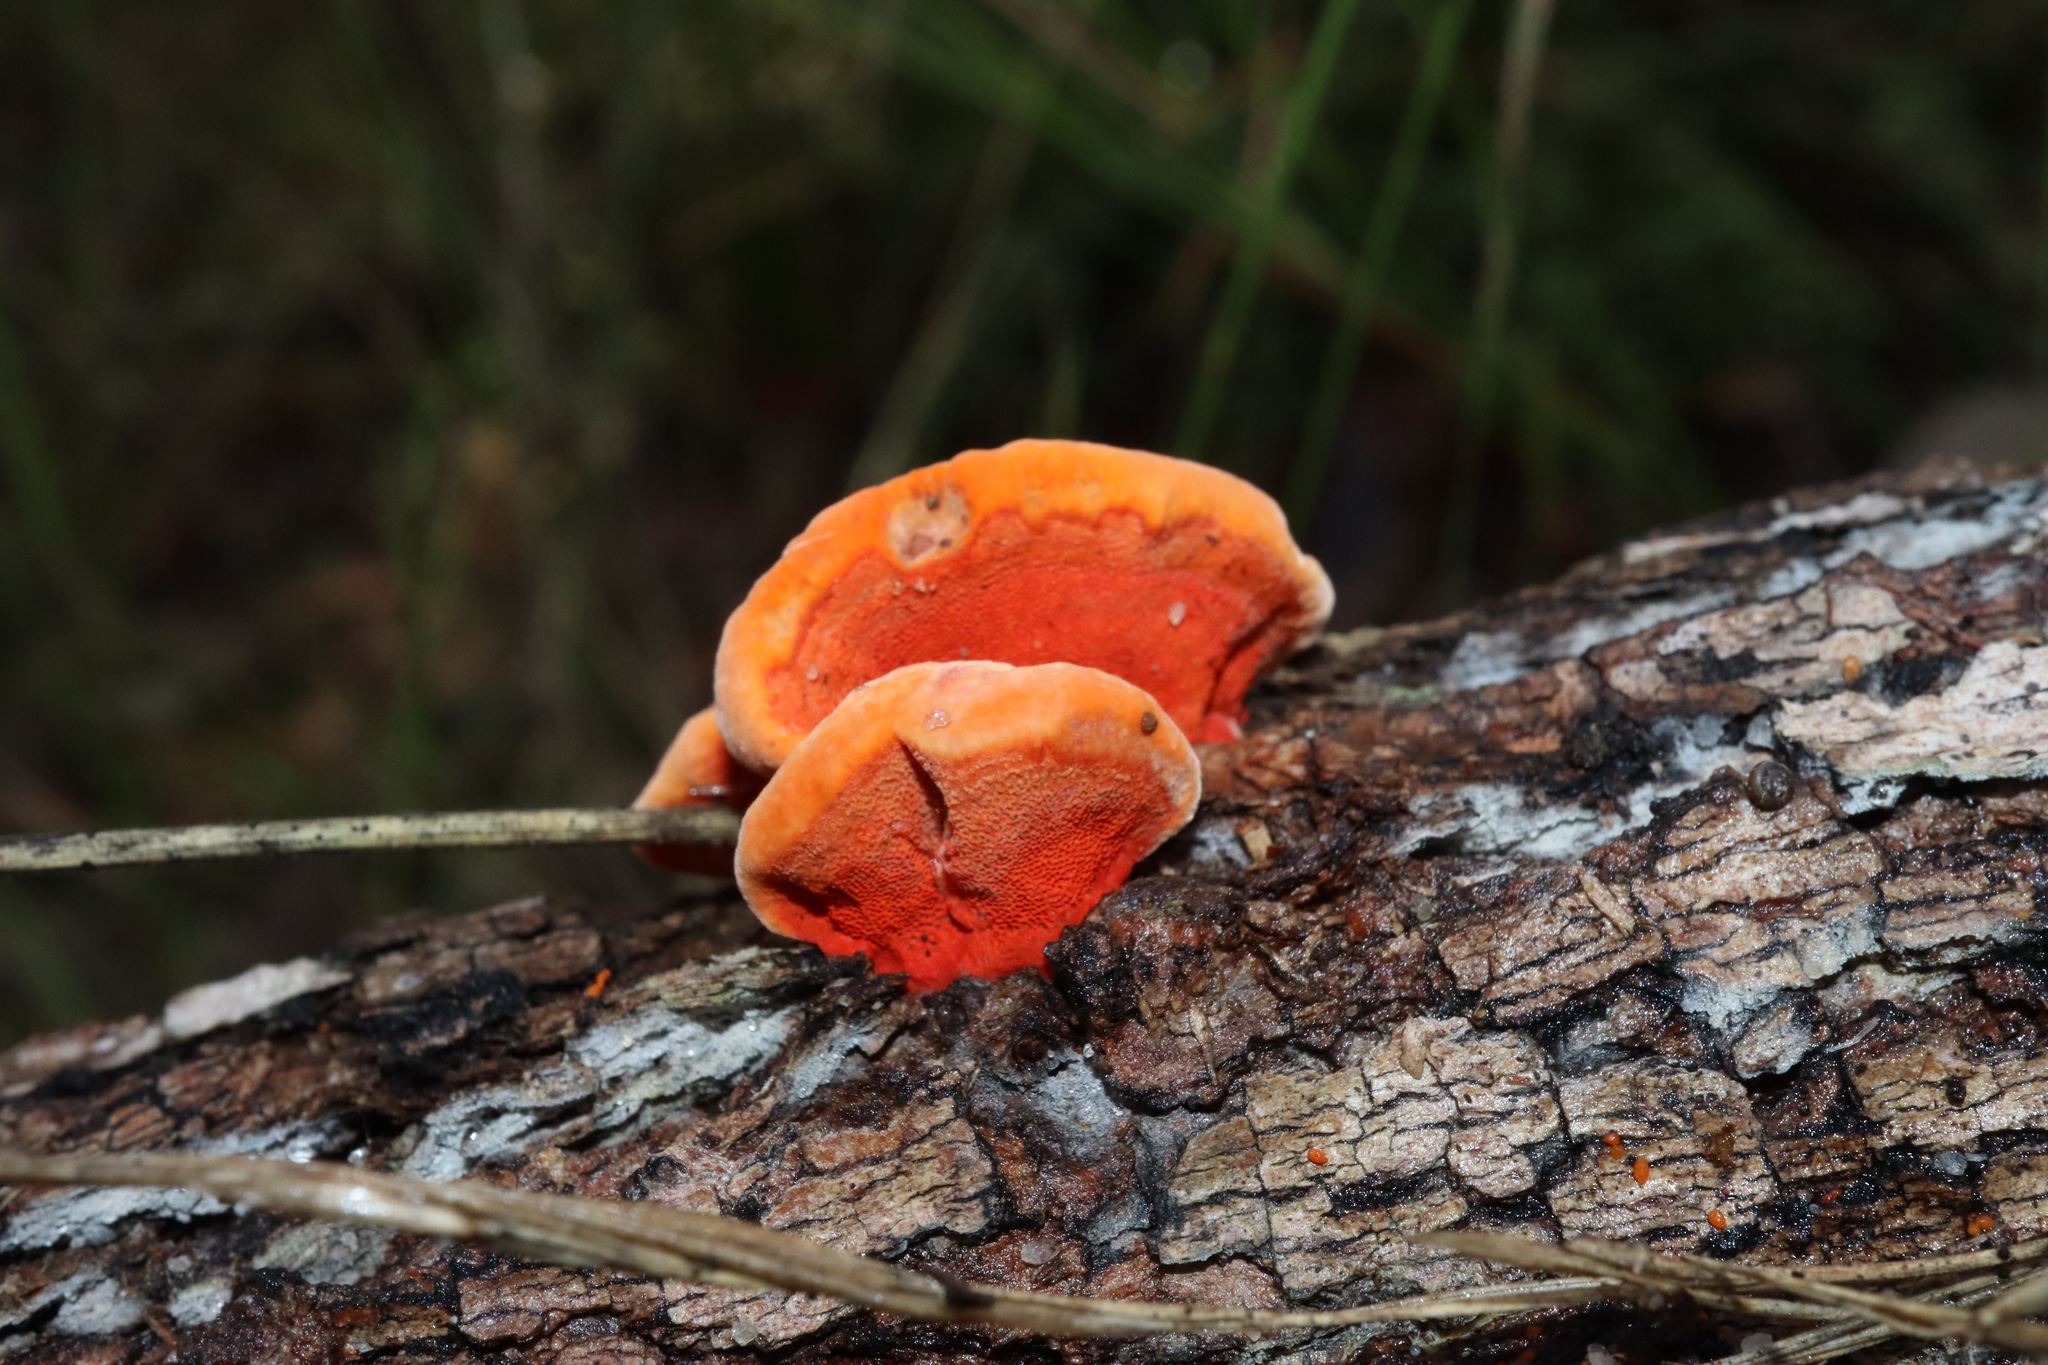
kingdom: Fungi
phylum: Basidiomycota
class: Agaricomycetes
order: Polyporales
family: Polyporaceae
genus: Trametes
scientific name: Trametes coccinea
